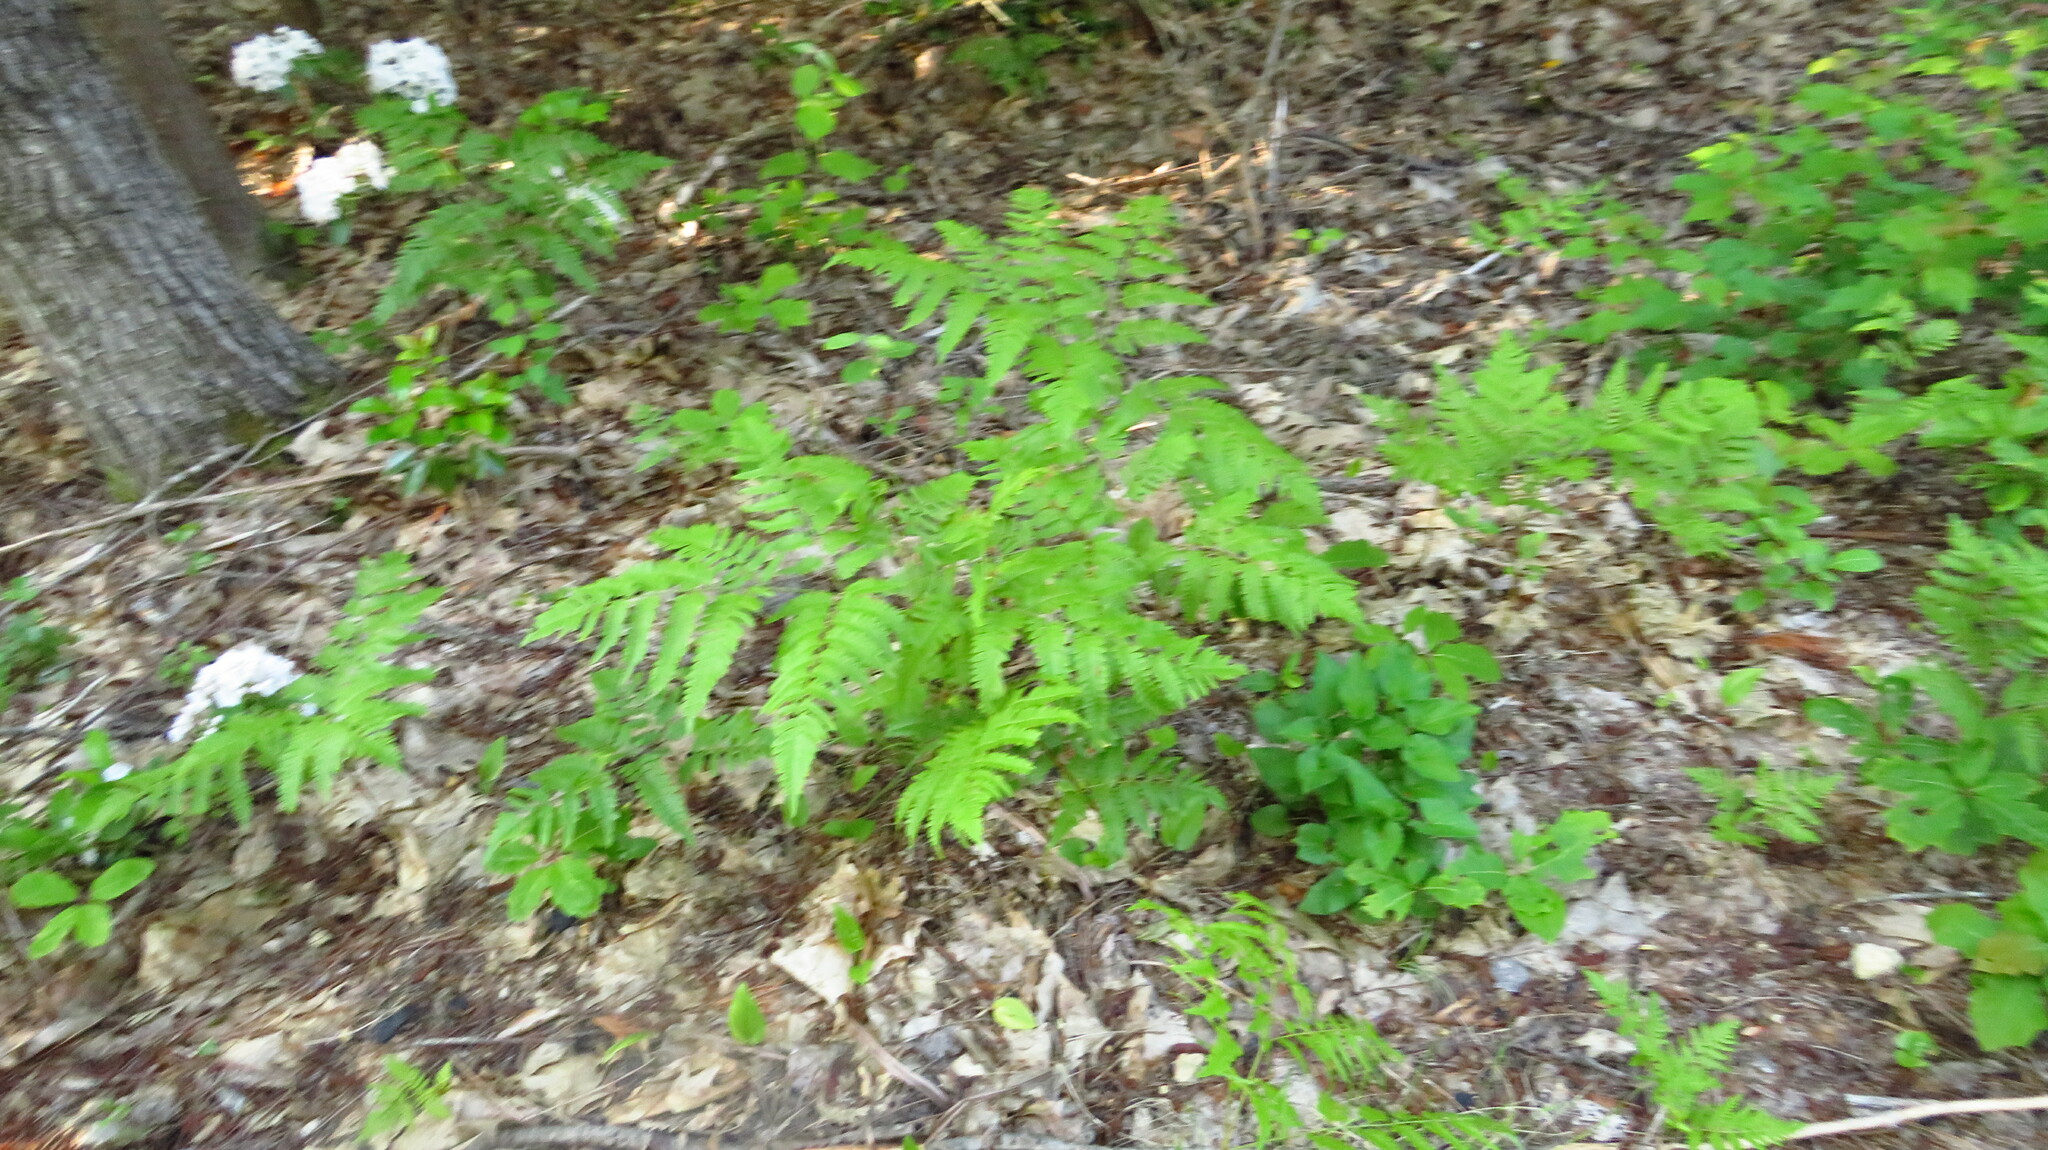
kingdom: Plantae
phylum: Tracheophyta
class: Polypodiopsida
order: Polypodiales
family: Dennstaedtiaceae
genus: Pteridium
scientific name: Pteridium aquilinum
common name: Bracken
